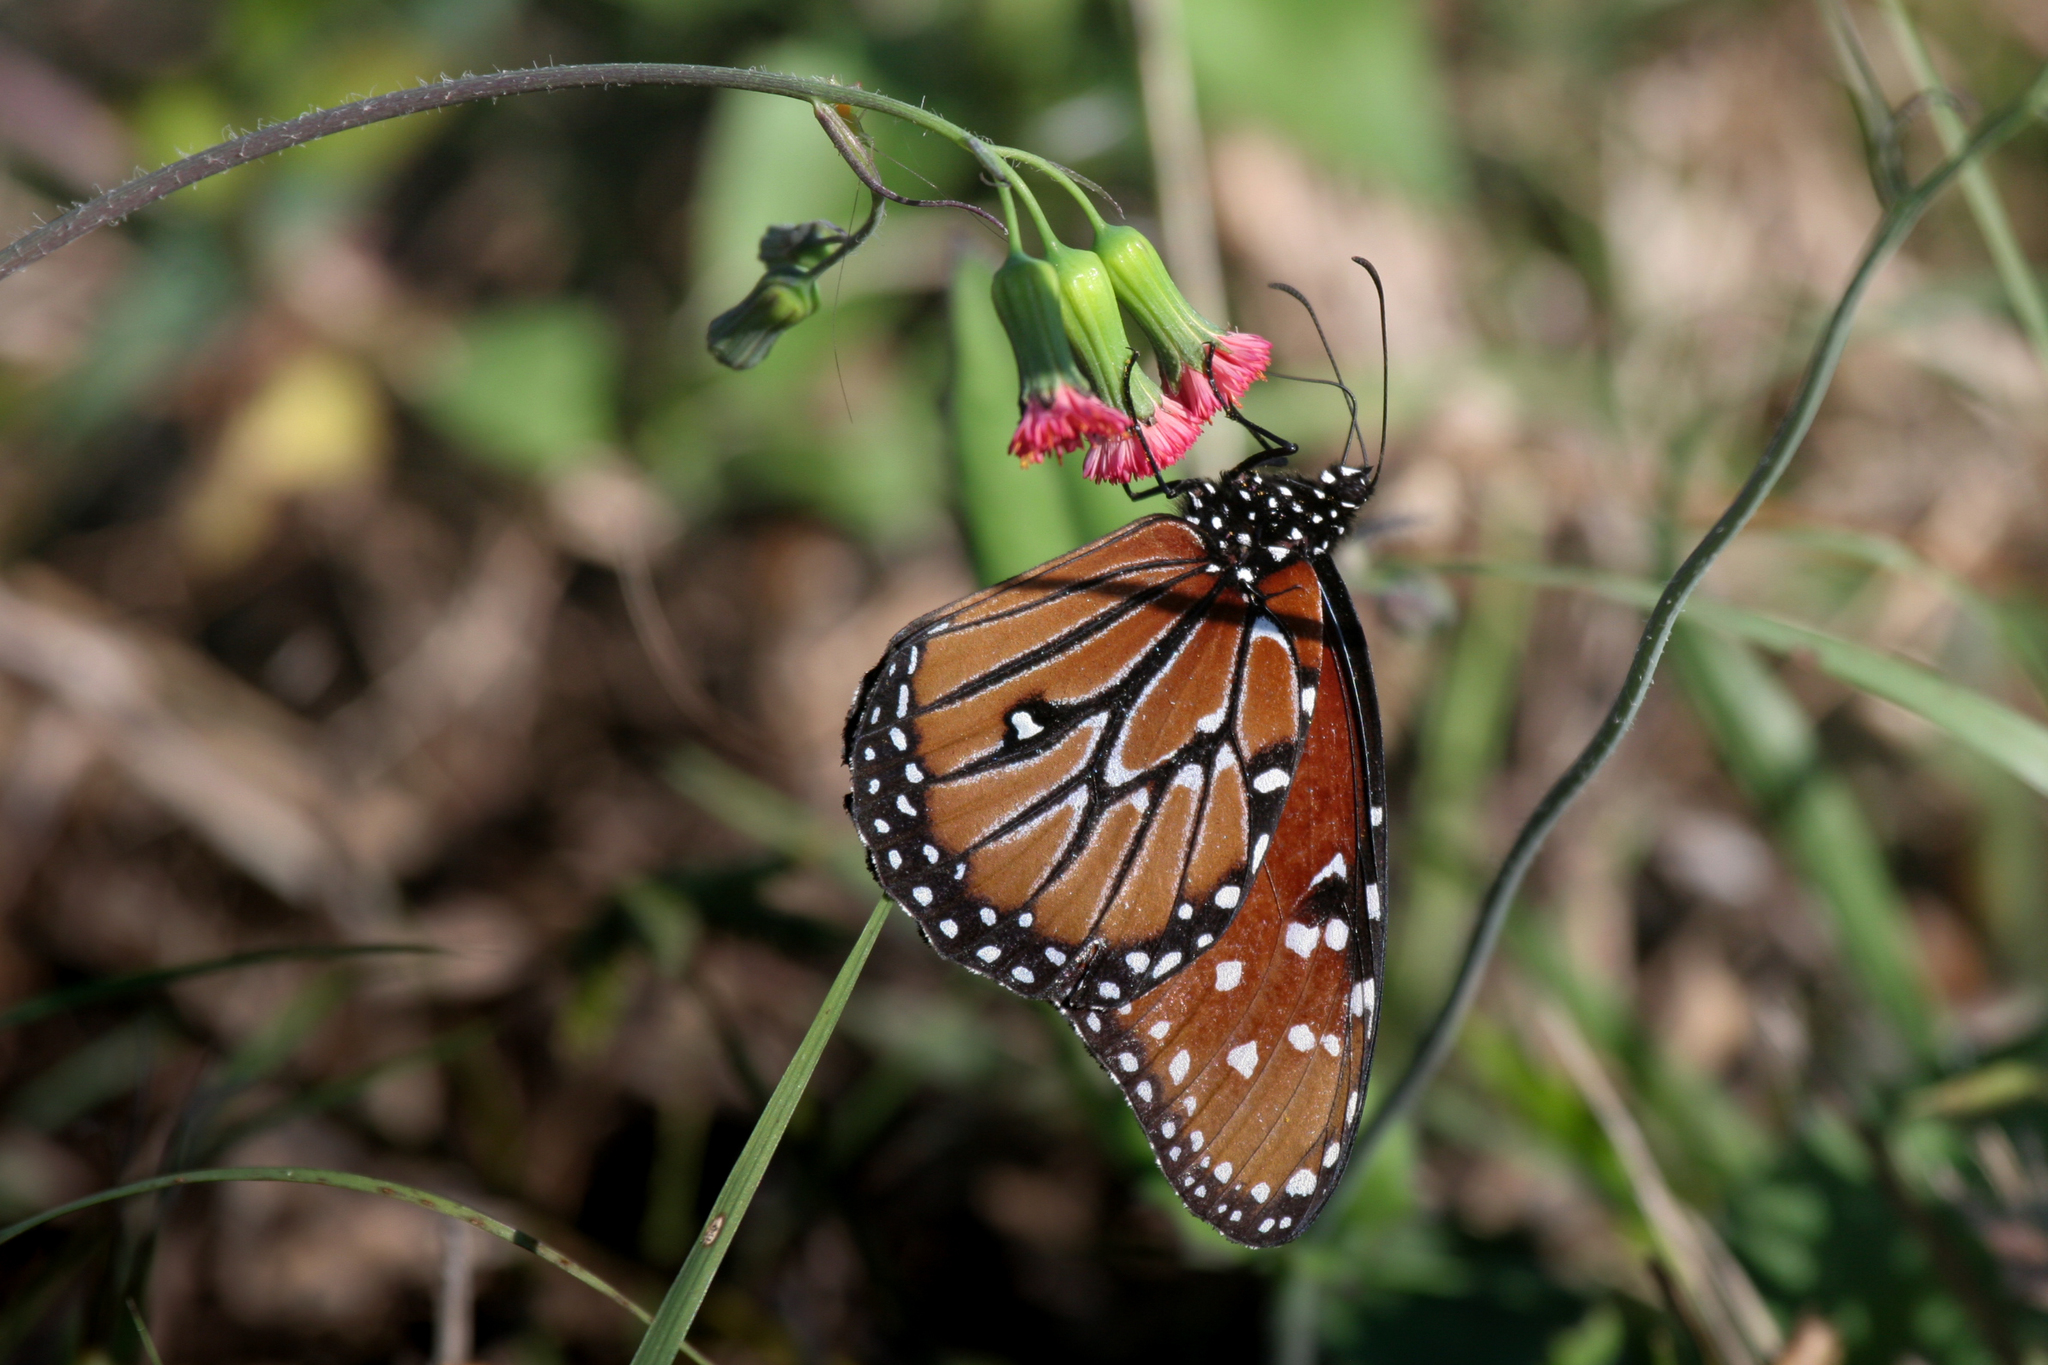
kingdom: Animalia
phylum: Arthropoda
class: Insecta
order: Lepidoptera
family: Nymphalidae
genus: Danaus
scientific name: Danaus gilippus
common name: Queen
